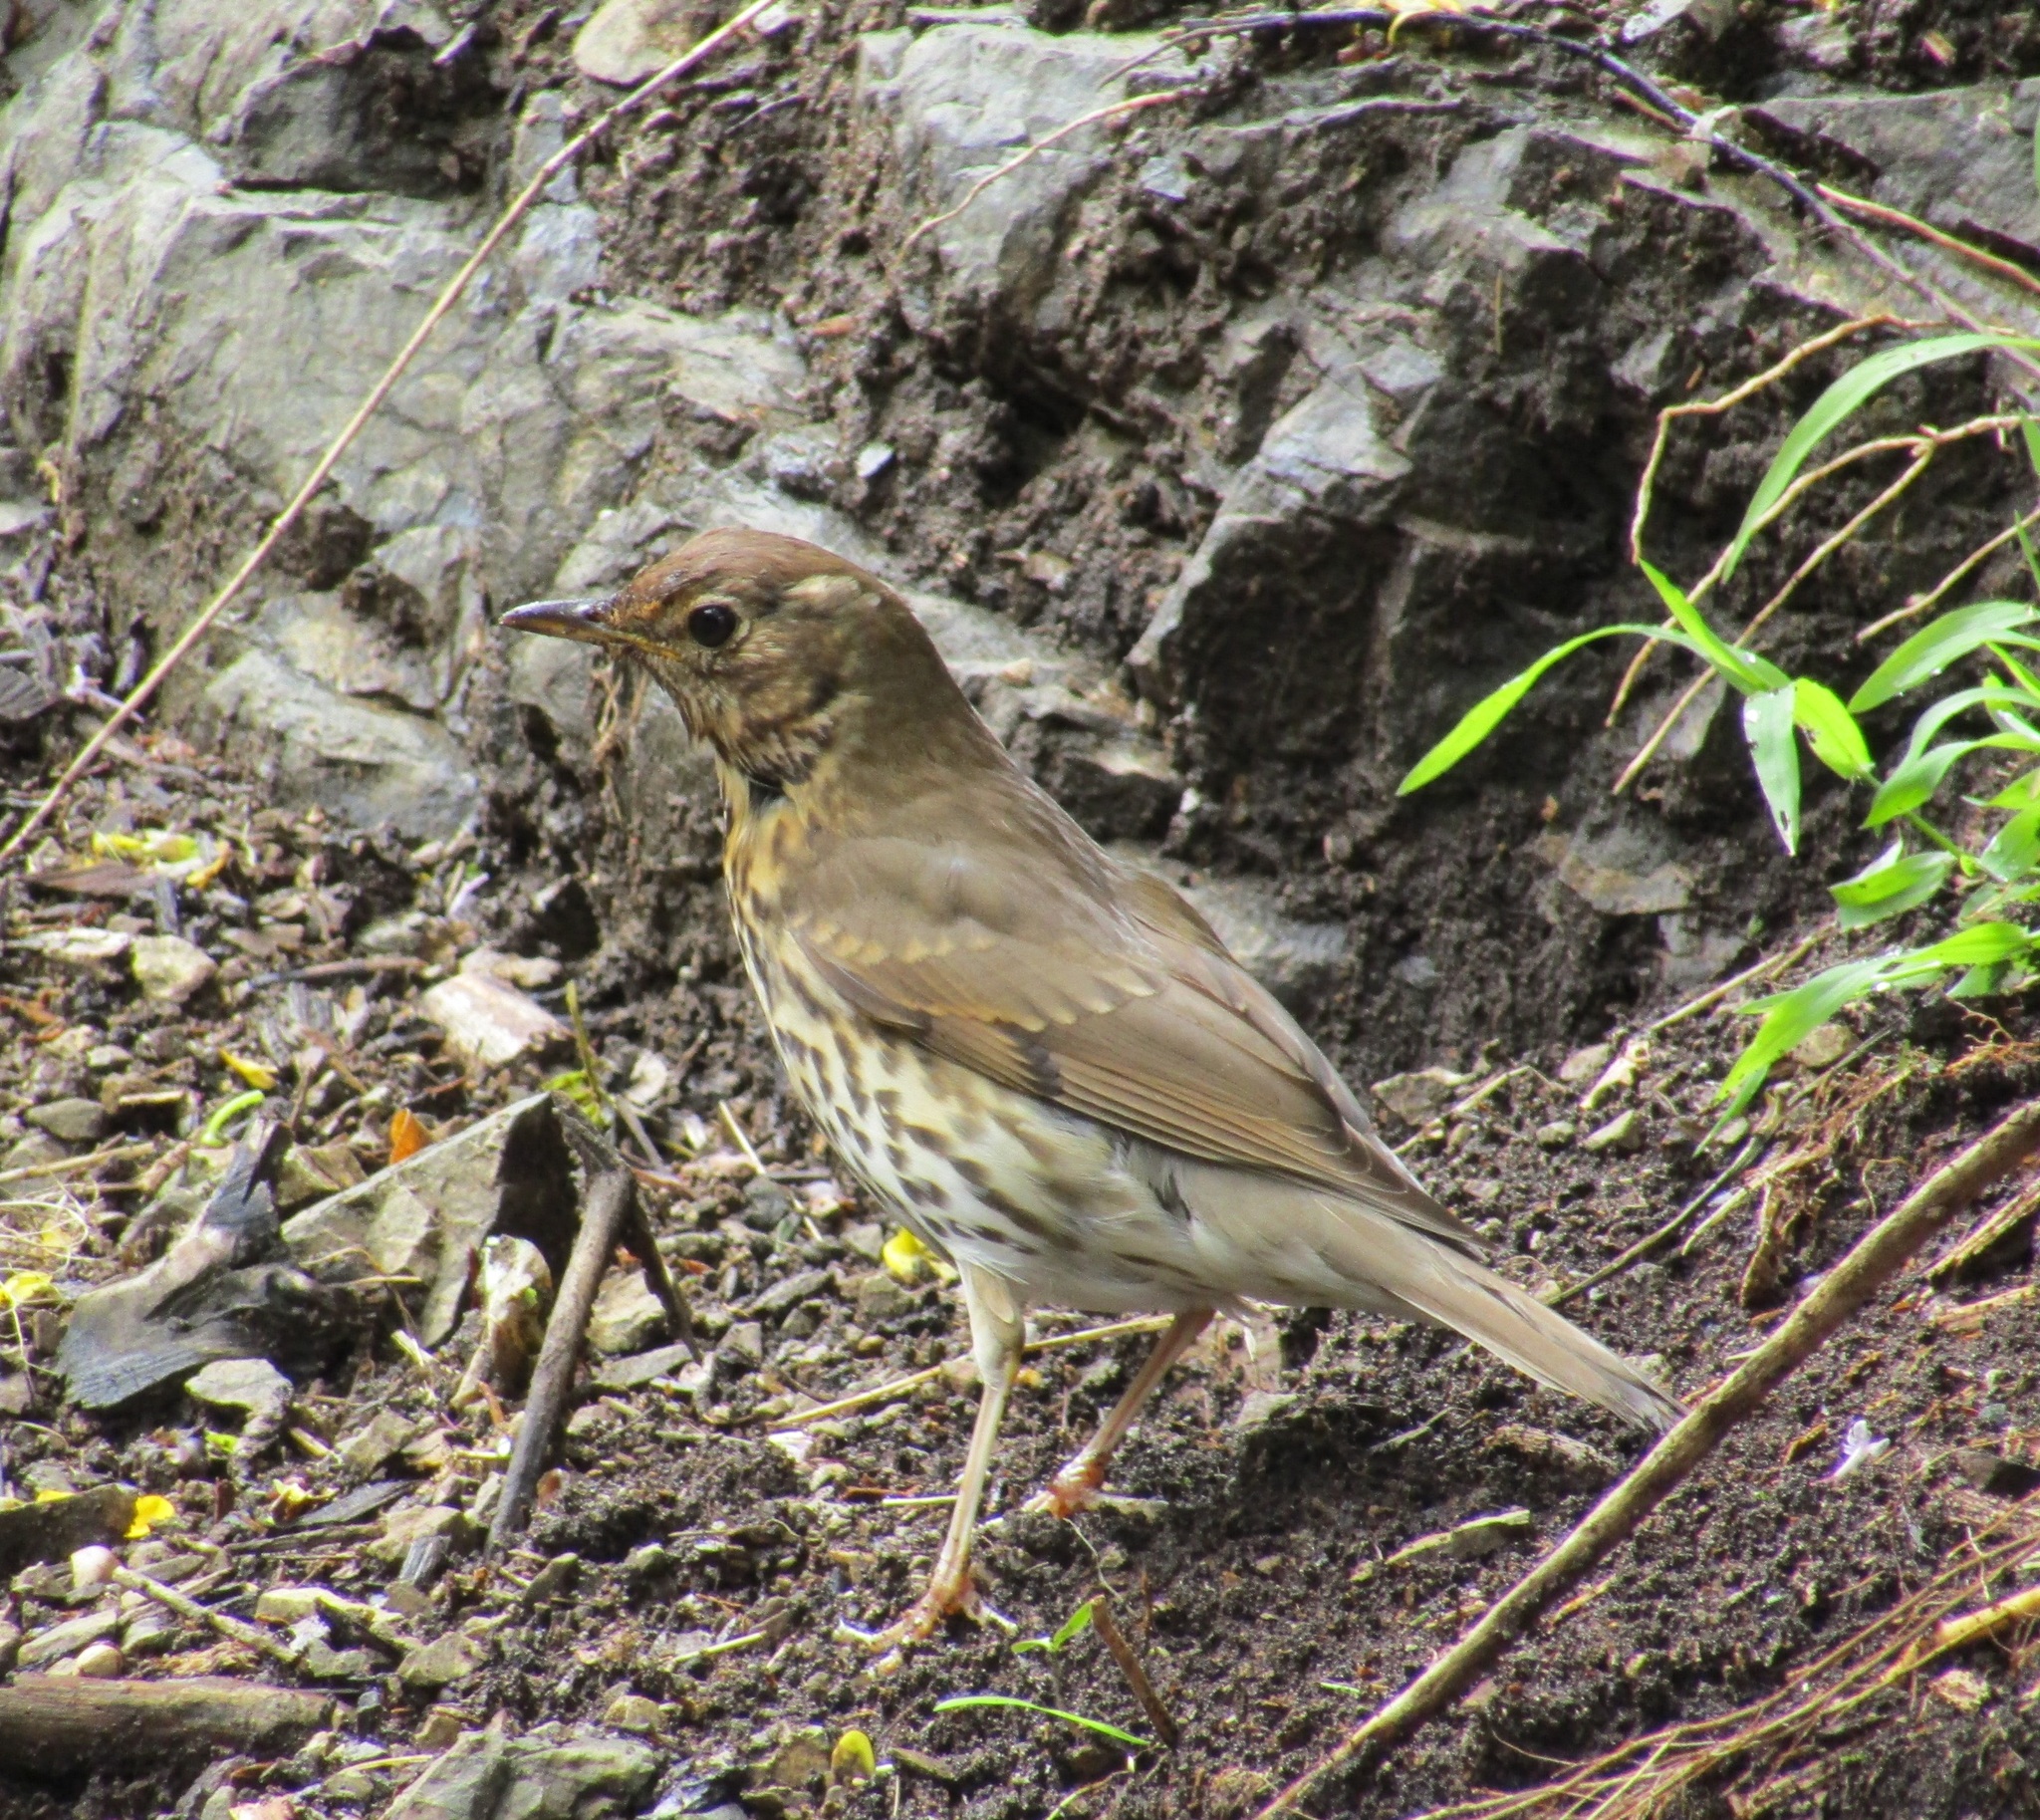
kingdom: Animalia
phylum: Chordata
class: Aves
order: Passeriformes
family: Turdidae
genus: Turdus
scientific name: Turdus philomelos
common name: Song thrush
